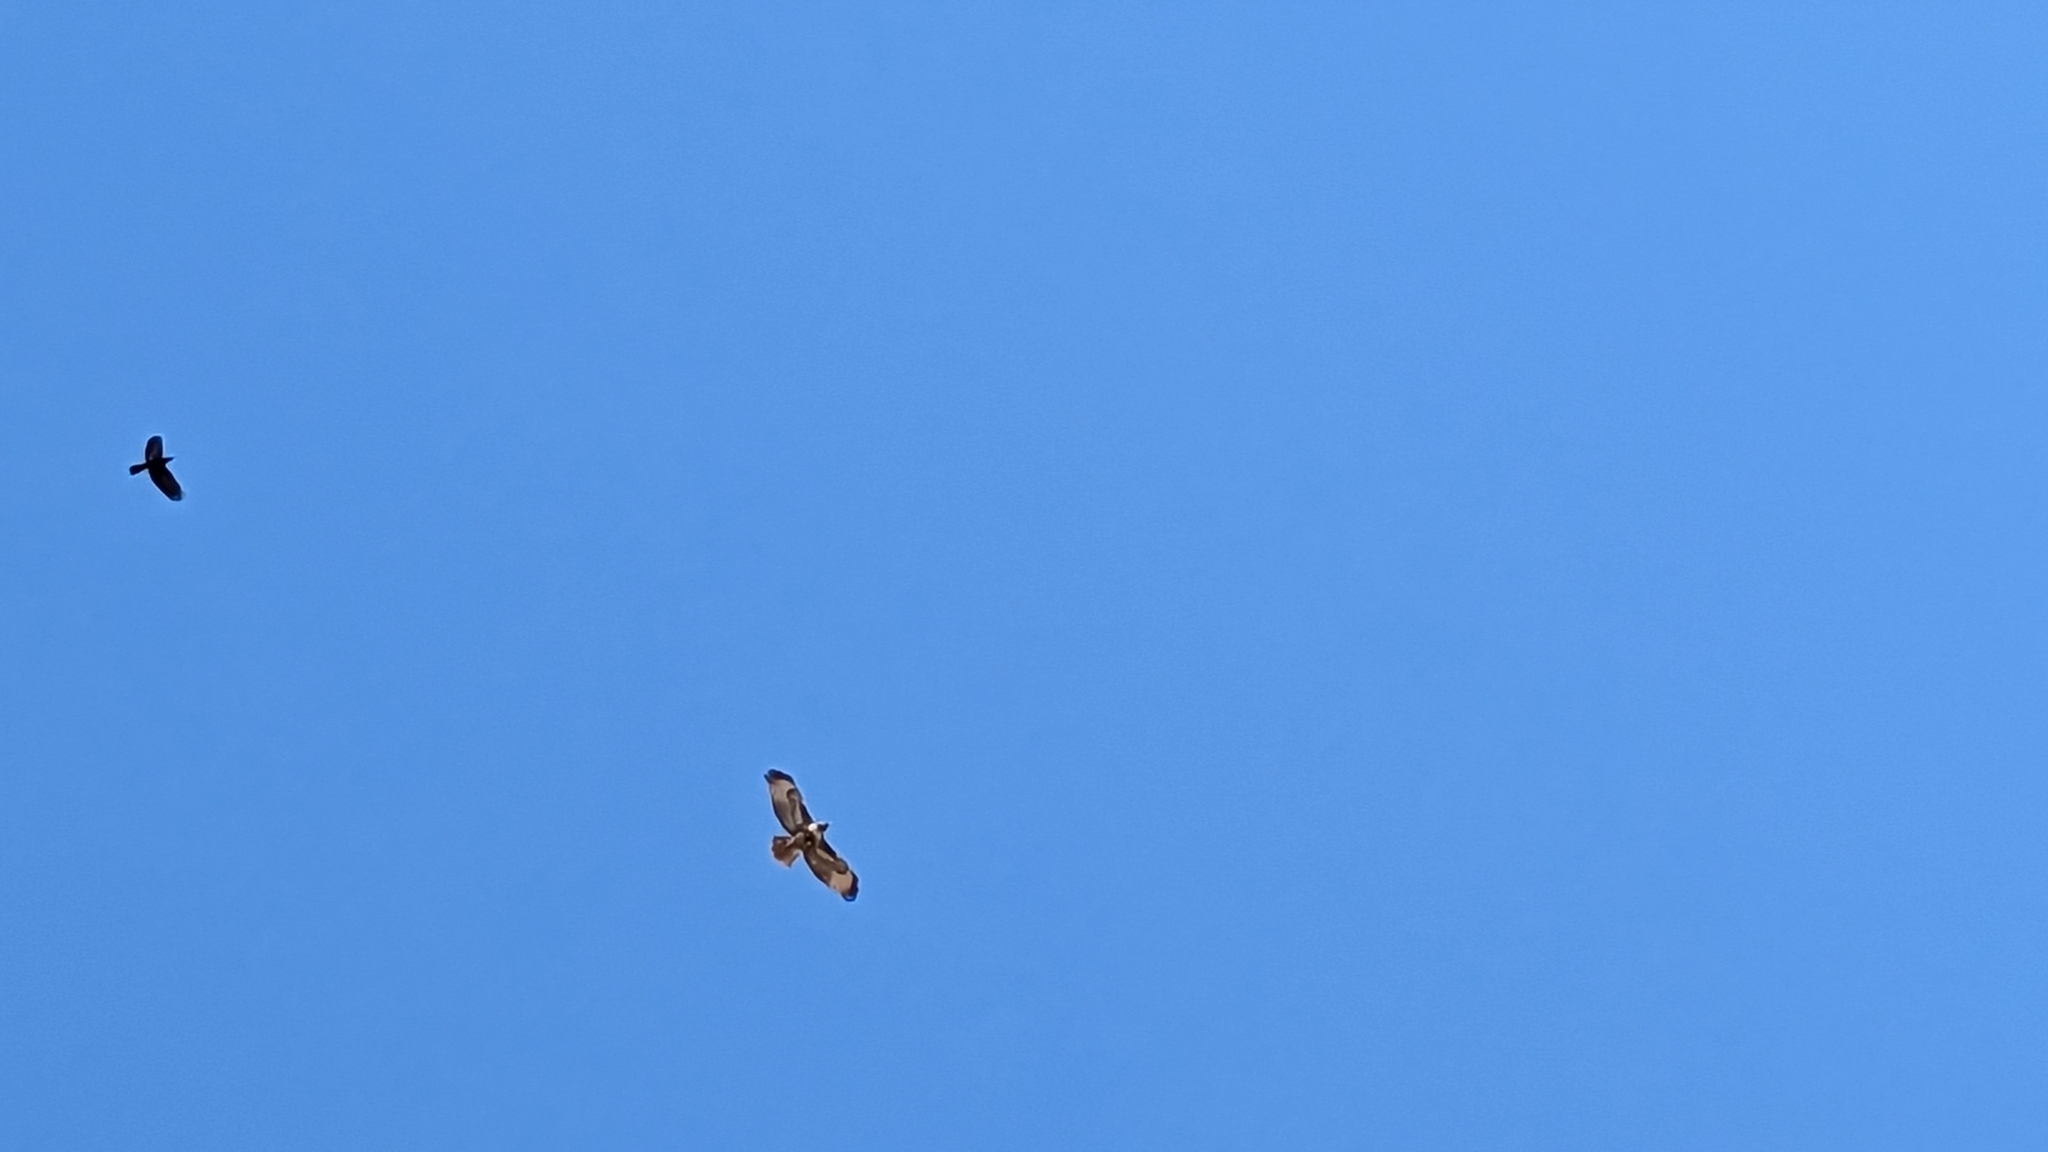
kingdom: Animalia
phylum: Chordata
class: Aves
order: Accipitriformes
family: Accipitridae
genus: Buteo
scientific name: Buteo jamaicensis
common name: Red-tailed hawk
